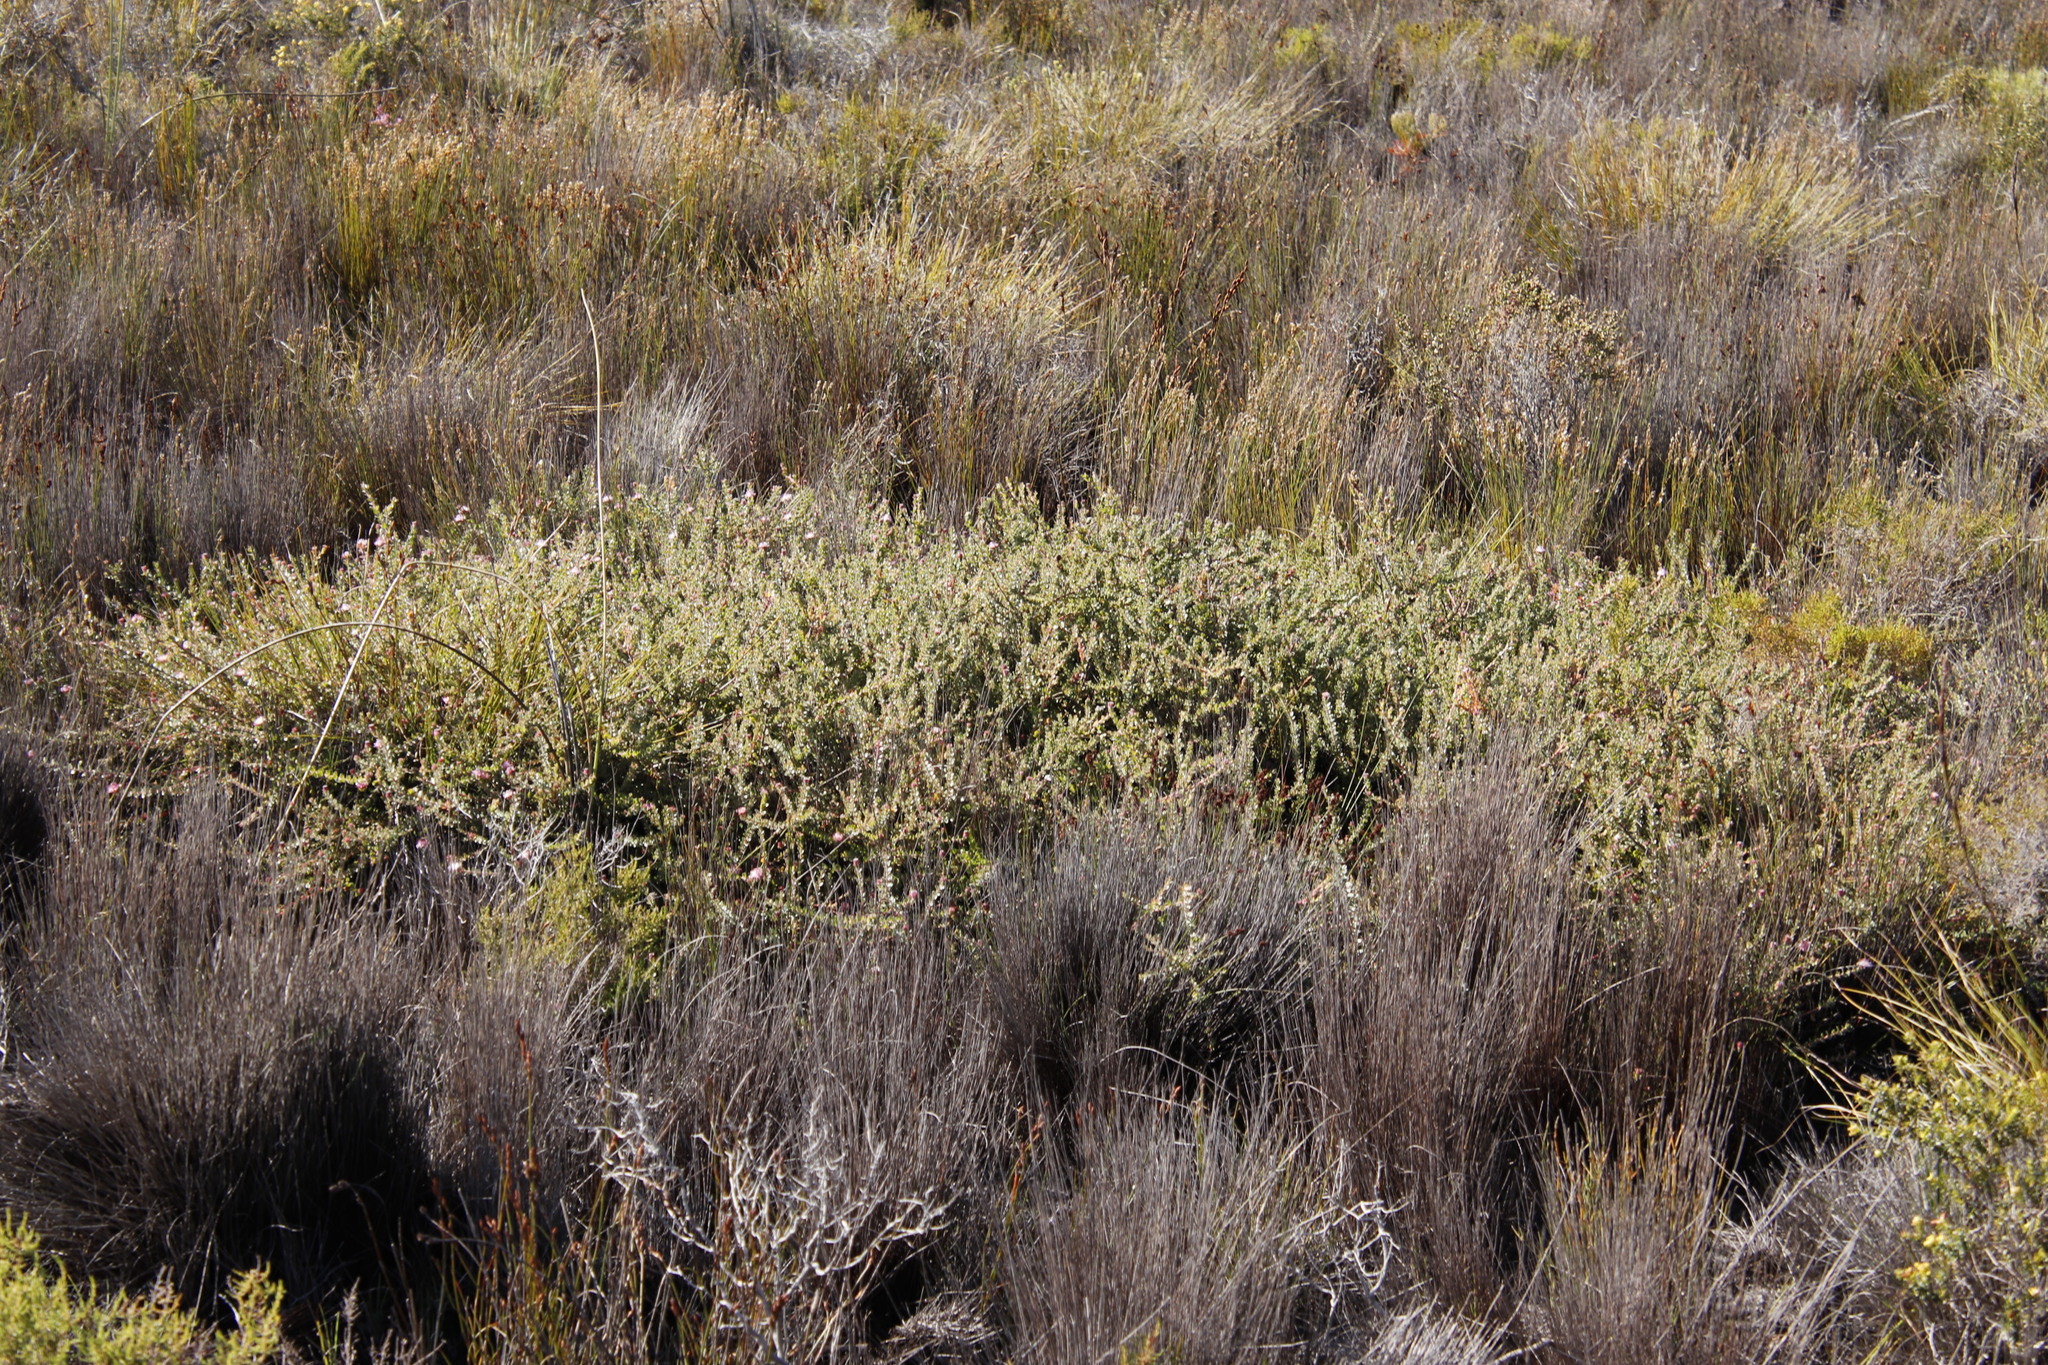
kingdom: Plantae
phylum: Tracheophyta
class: Magnoliopsida
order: Proteales
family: Proteaceae
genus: Diastella
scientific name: Diastella divaricata
